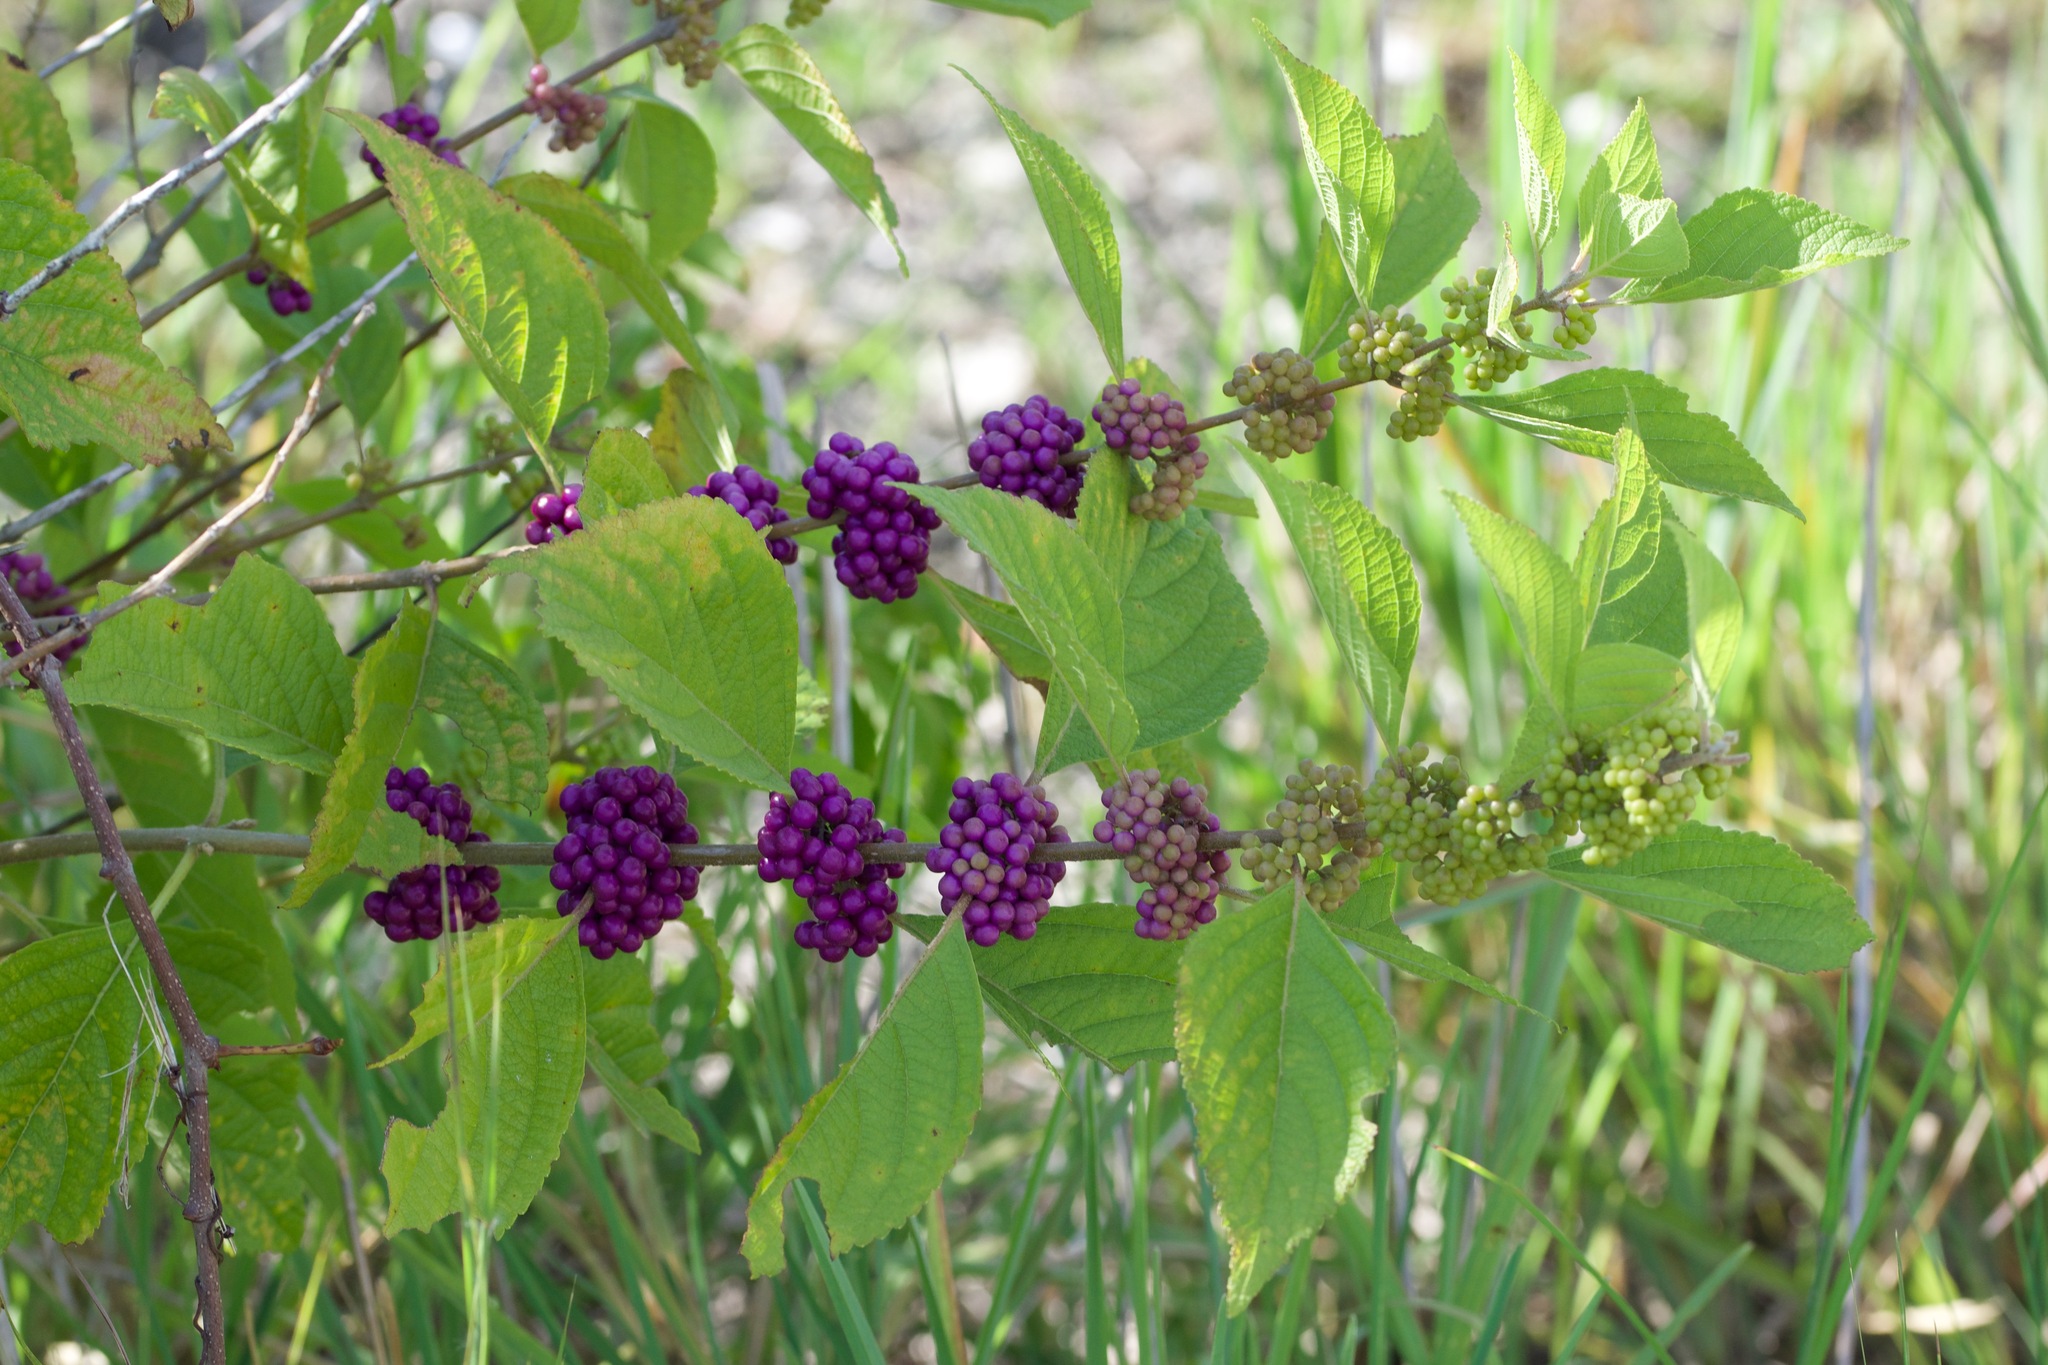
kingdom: Plantae
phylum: Tracheophyta
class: Magnoliopsida
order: Lamiales
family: Lamiaceae
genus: Callicarpa
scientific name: Callicarpa americana
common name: American beautyberry
